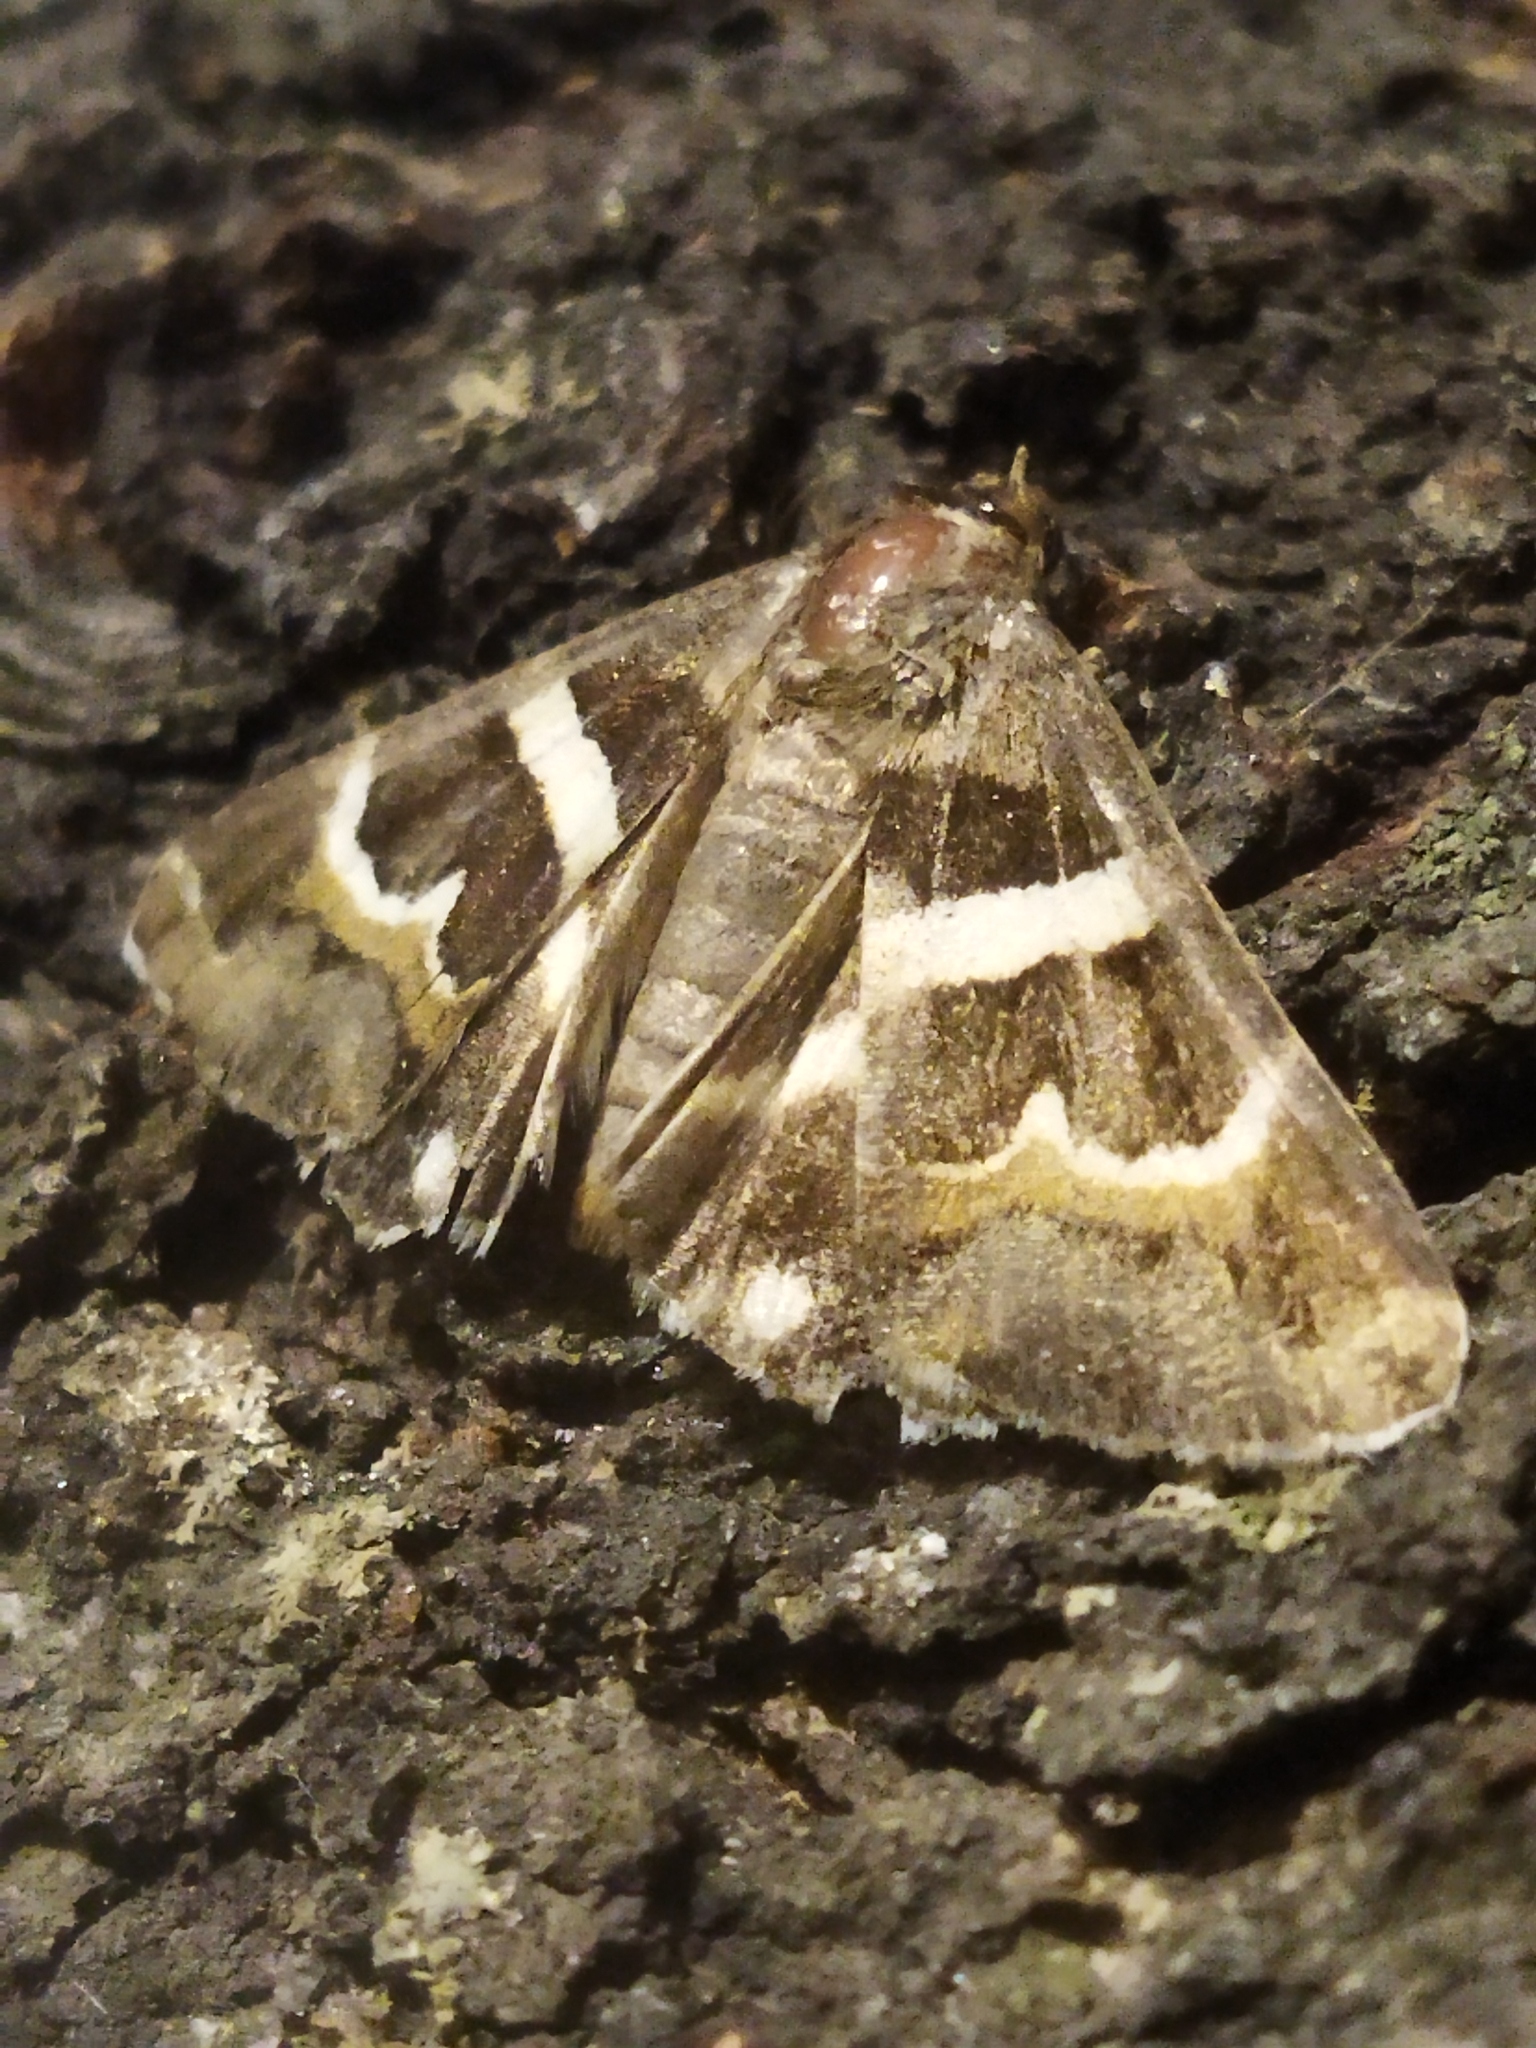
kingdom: Animalia
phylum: Arthropoda
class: Insecta
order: Lepidoptera
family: Erebidae
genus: Grammodes
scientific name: Grammodes stolida
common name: Geometrician
